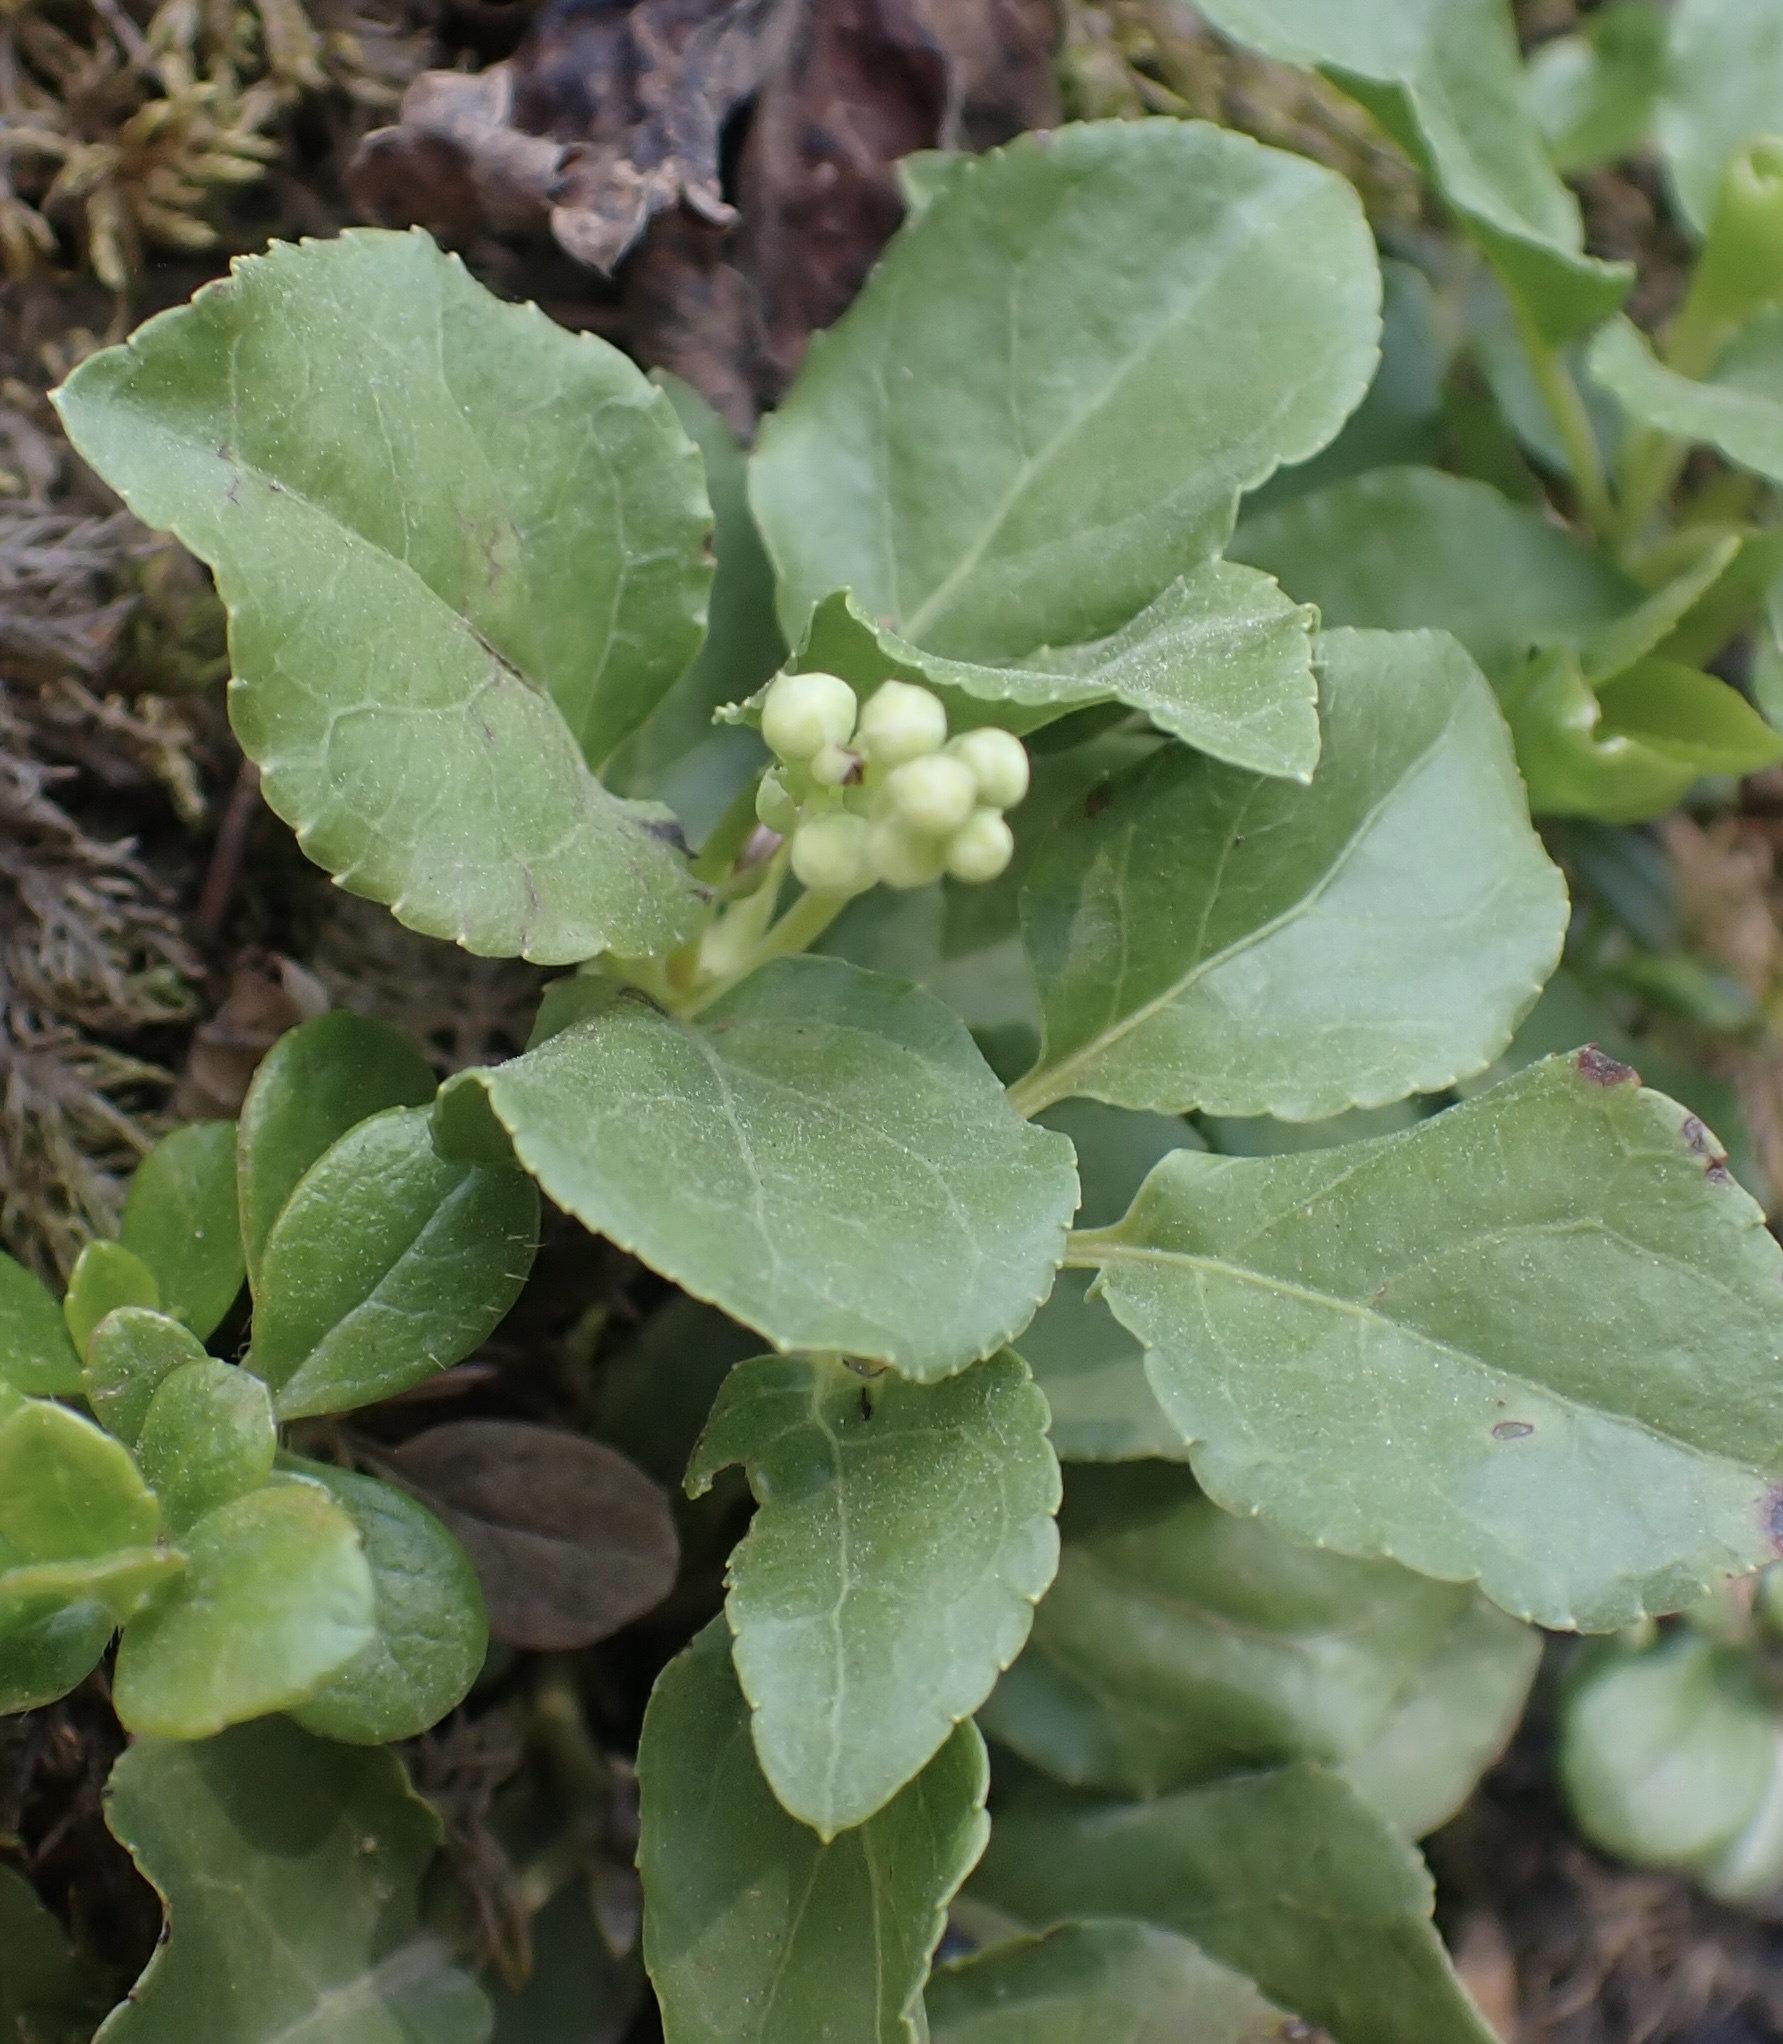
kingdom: Plantae
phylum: Tracheophyta
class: Magnoliopsida
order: Ericales
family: Ericaceae
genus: Orthilia
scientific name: Orthilia secunda
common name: One-sided orthilia
